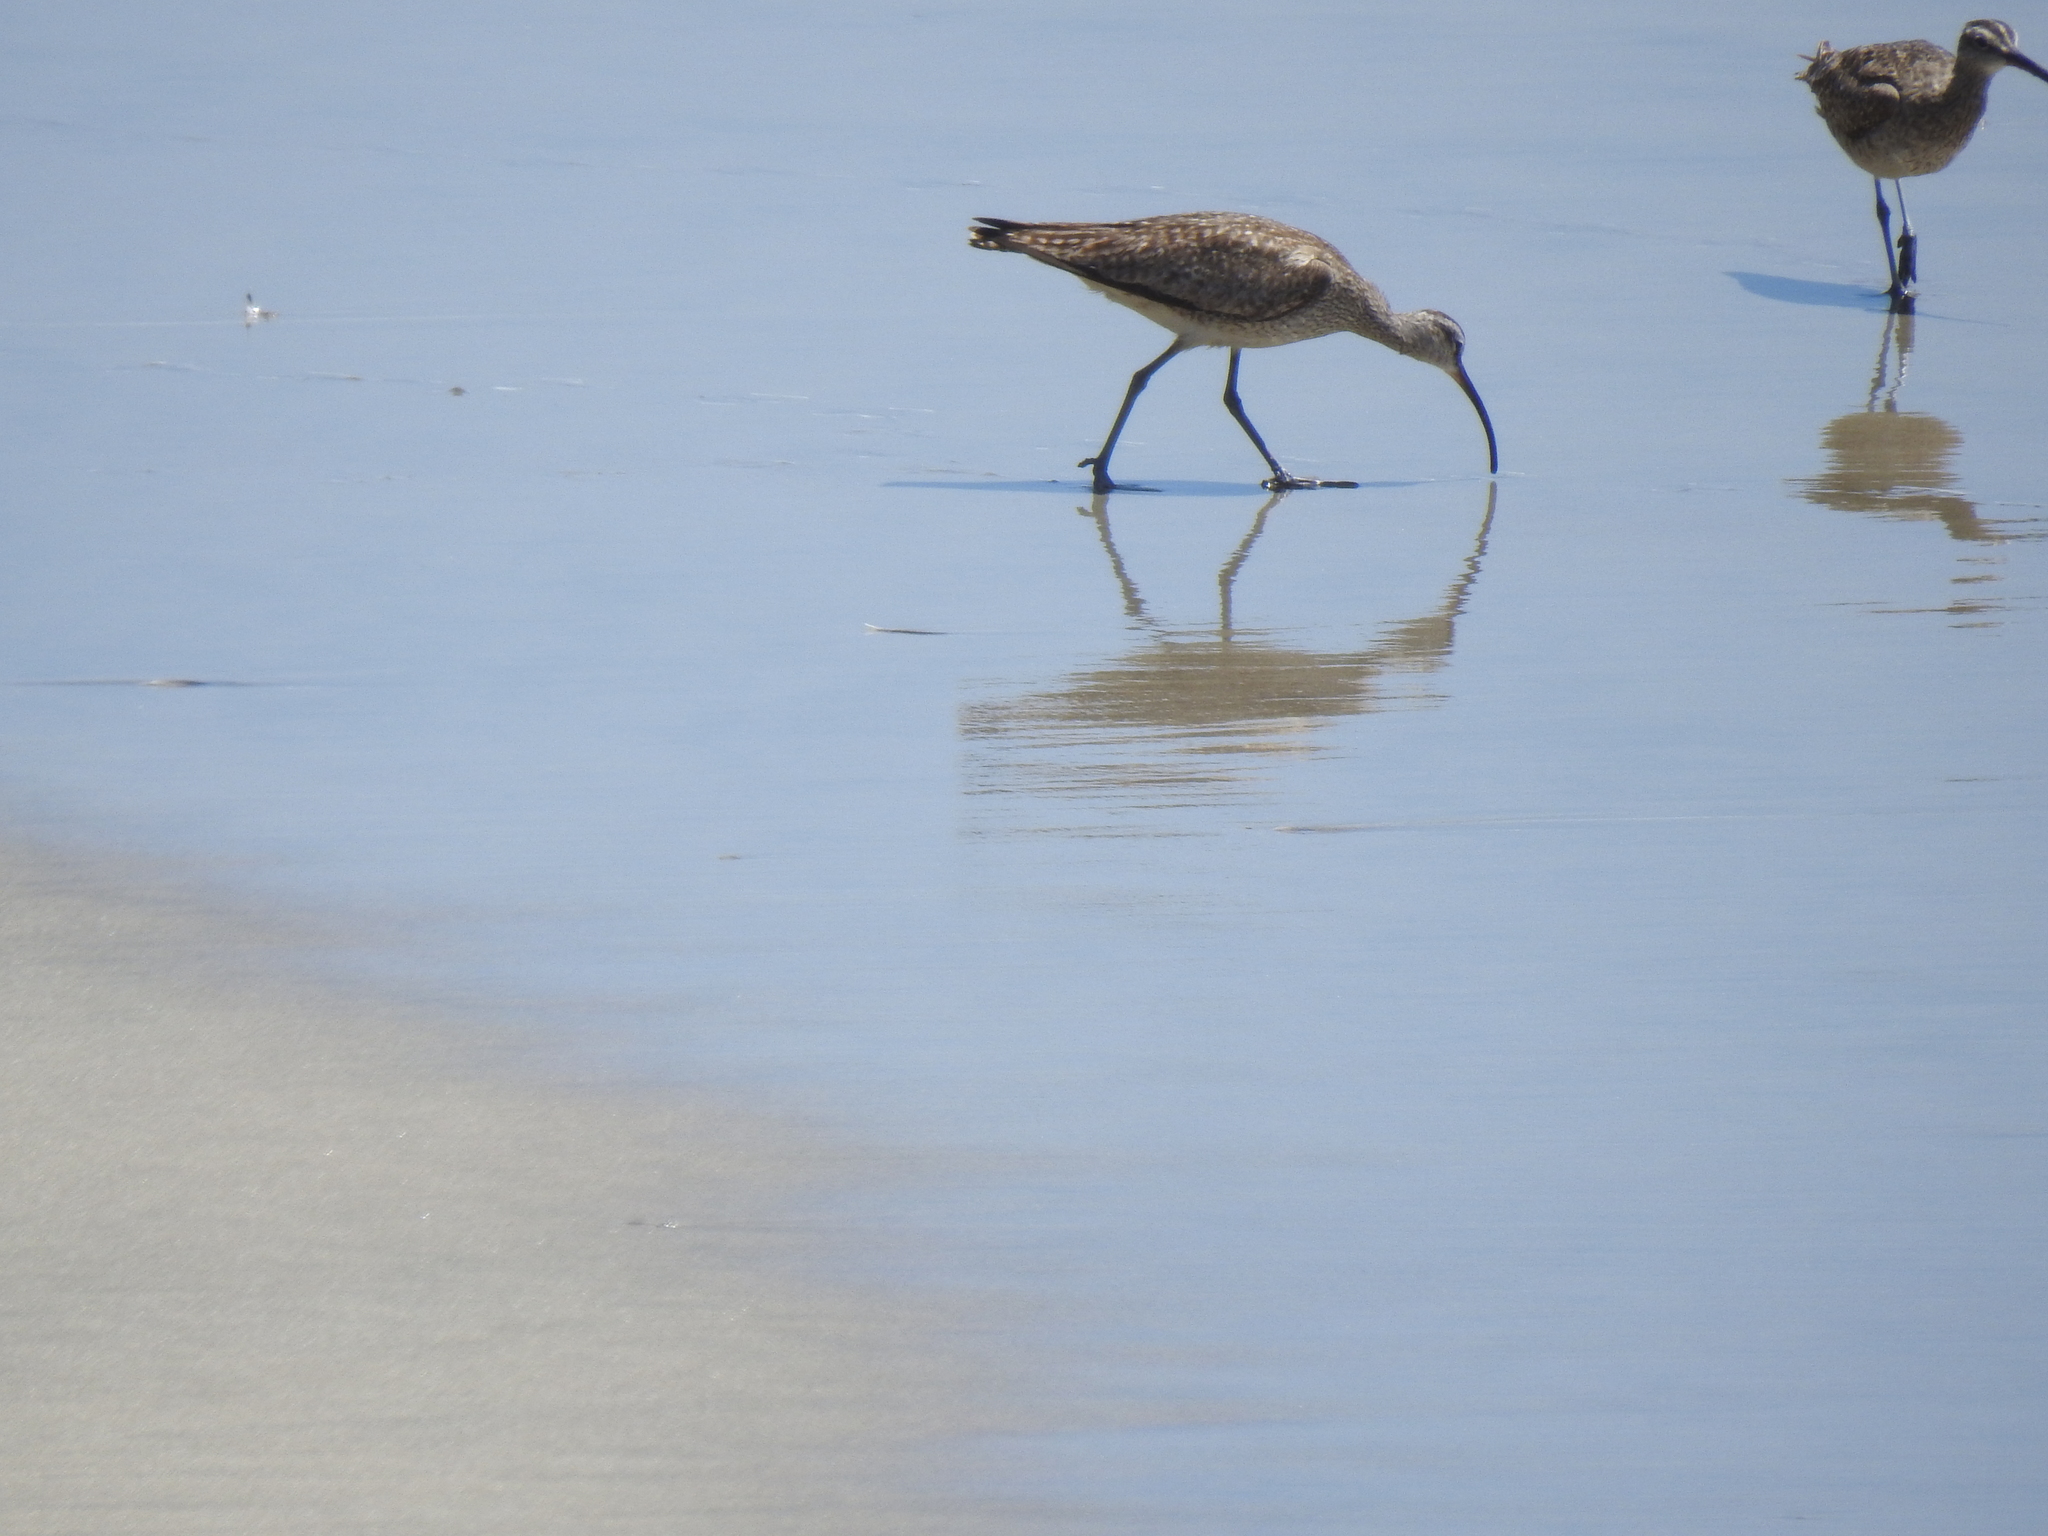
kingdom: Animalia
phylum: Chordata
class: Aves
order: Charadriiformes
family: Scolopacidae
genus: Numenius
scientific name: Numenius phaeopus
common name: Whimbrel
